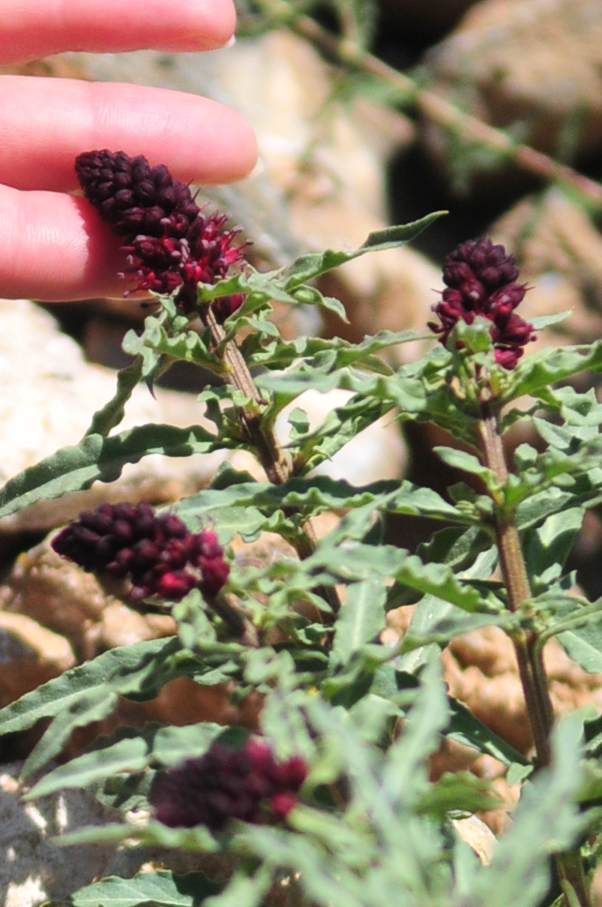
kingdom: Plantae
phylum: Tracheophyta
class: Magnoliopsida
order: Ericales
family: Primulaceae
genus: Lysimachia
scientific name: Lysimachia atropurpurea
